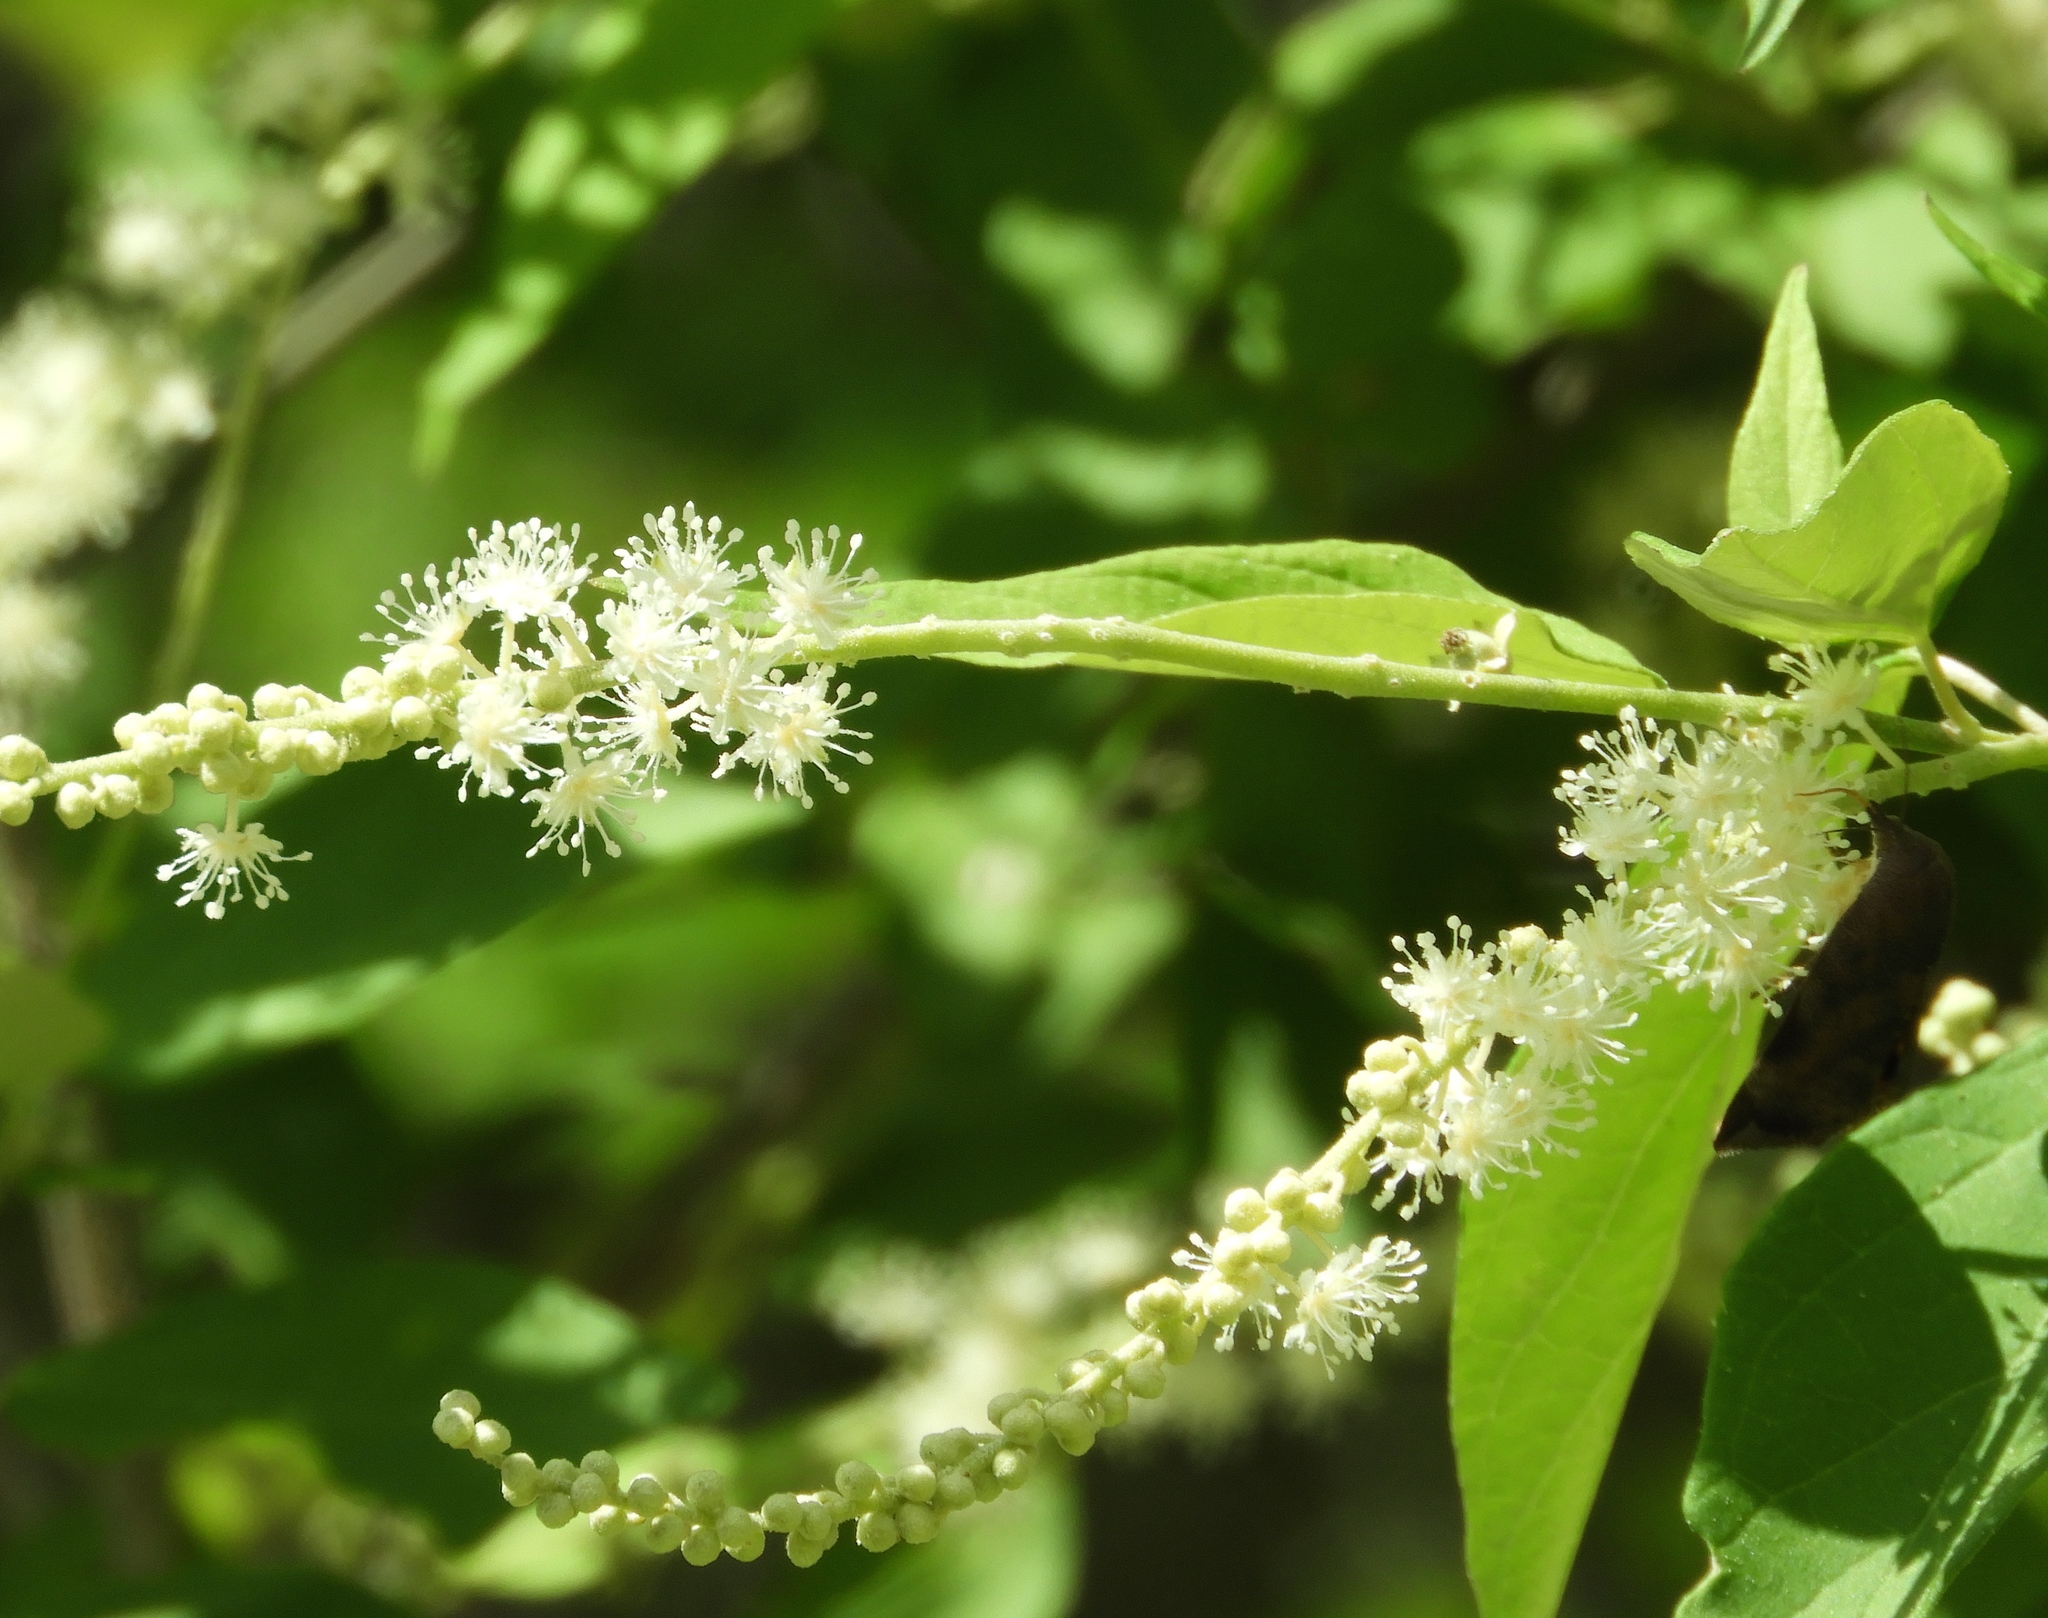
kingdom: Plantae
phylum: Tracheophyta
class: Magnoliopsida
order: Malpighiales
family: Euphorbiaceae
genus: Croton
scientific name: Croton culiacanensis
